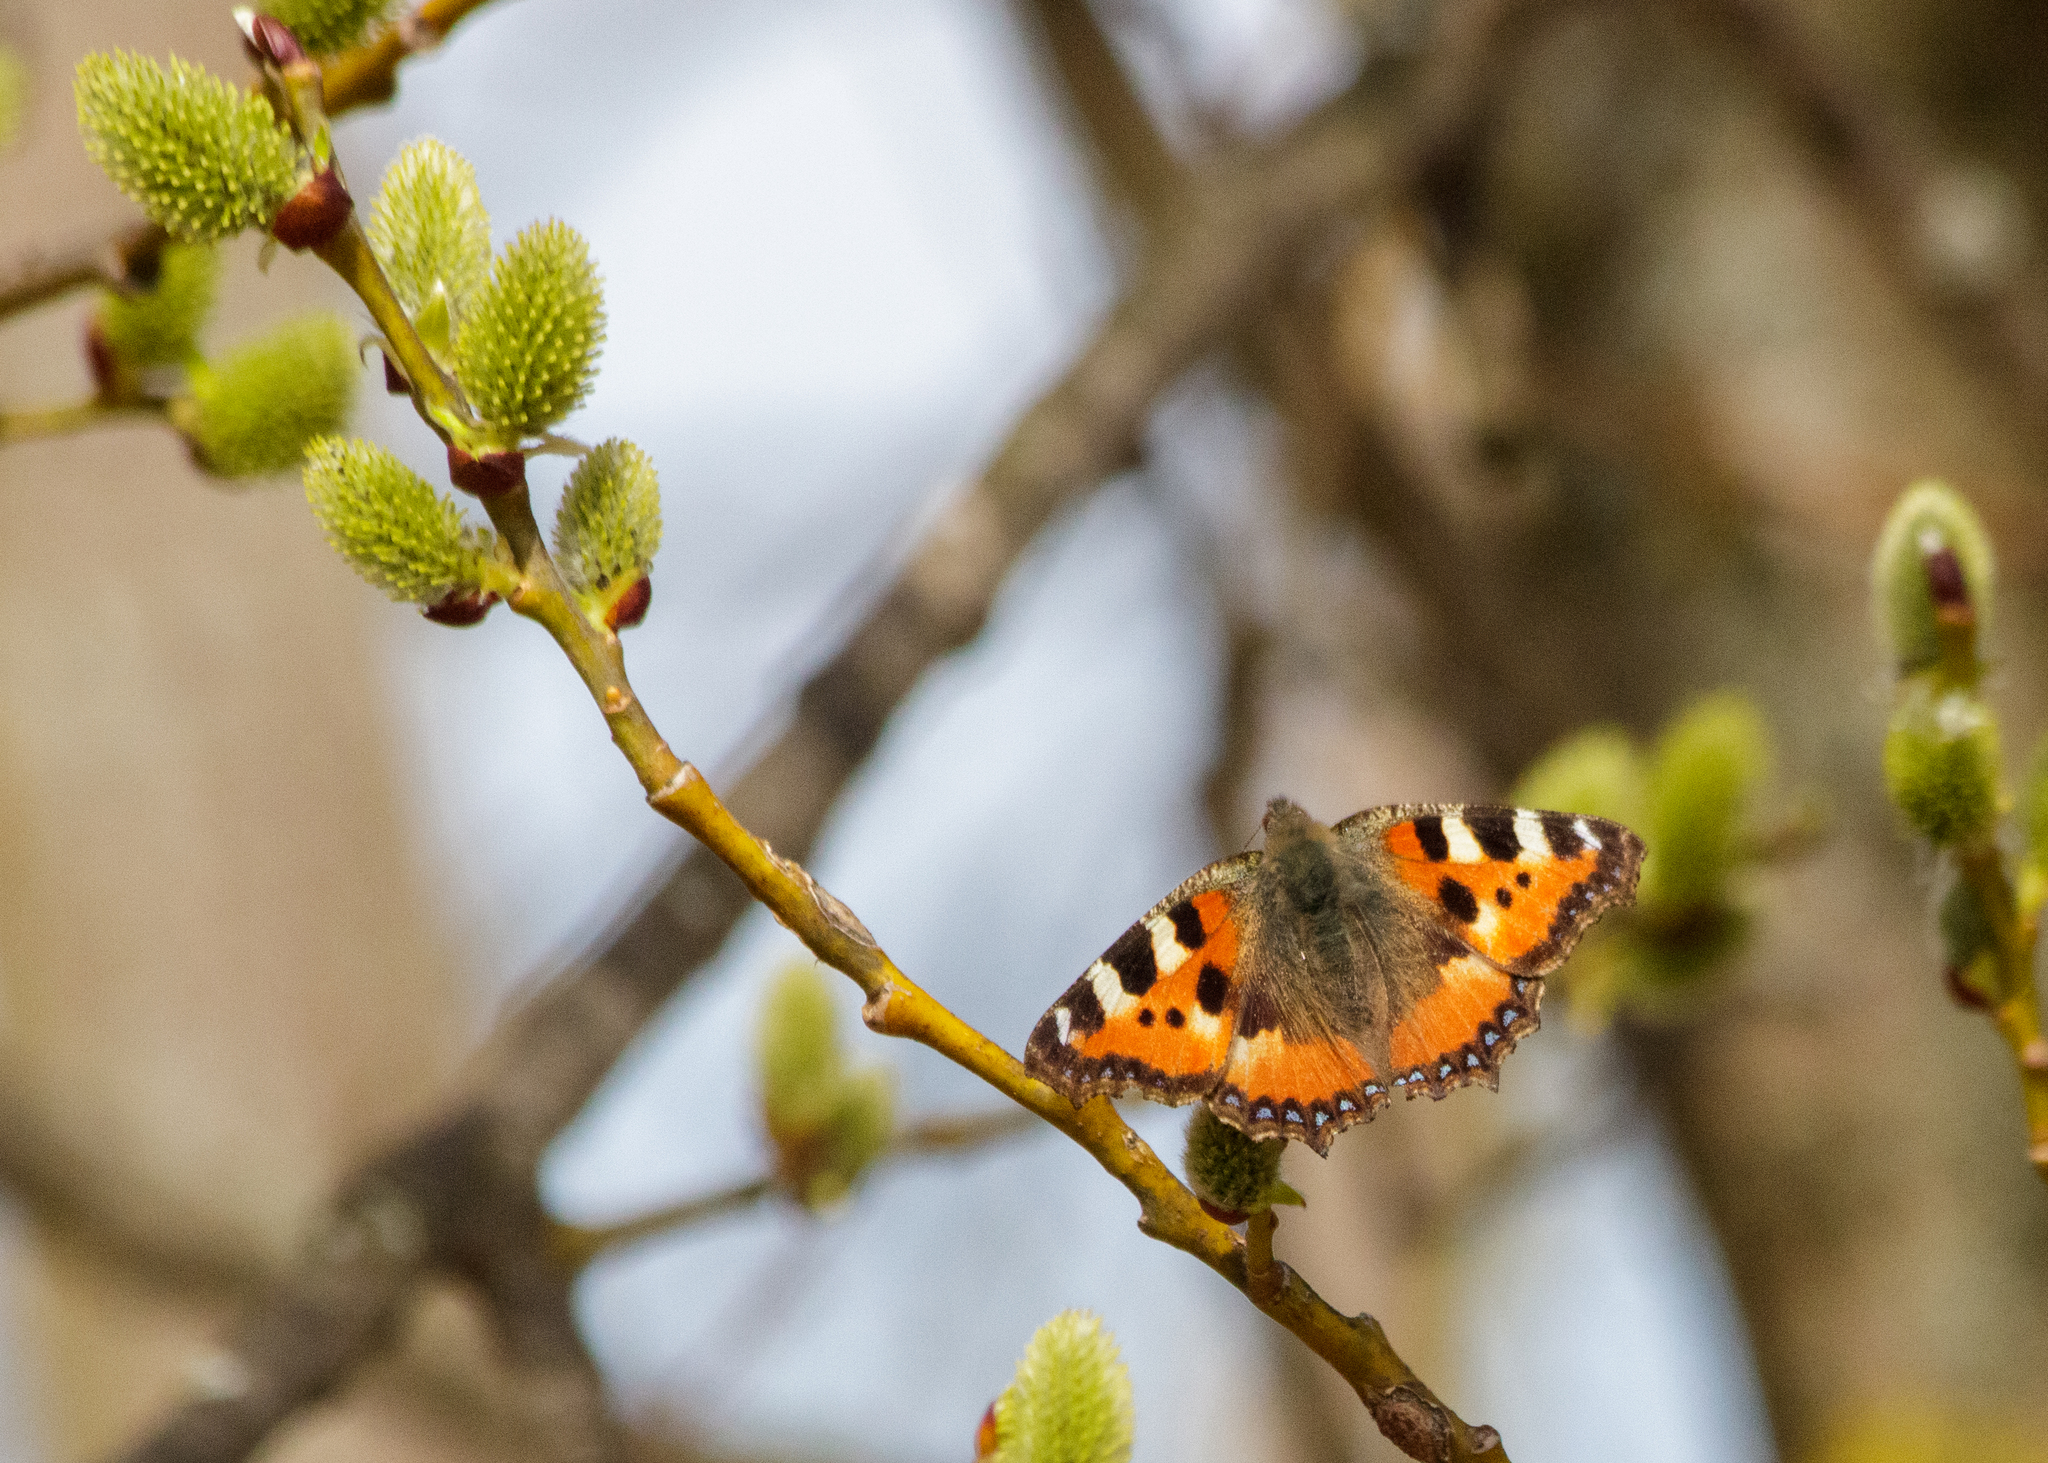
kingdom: Animalia
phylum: Arthropoda
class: Insecta
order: Lepidoptera
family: Nymphalidae
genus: Aglais
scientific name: Aglais urticae
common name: Small tortoiseshell
